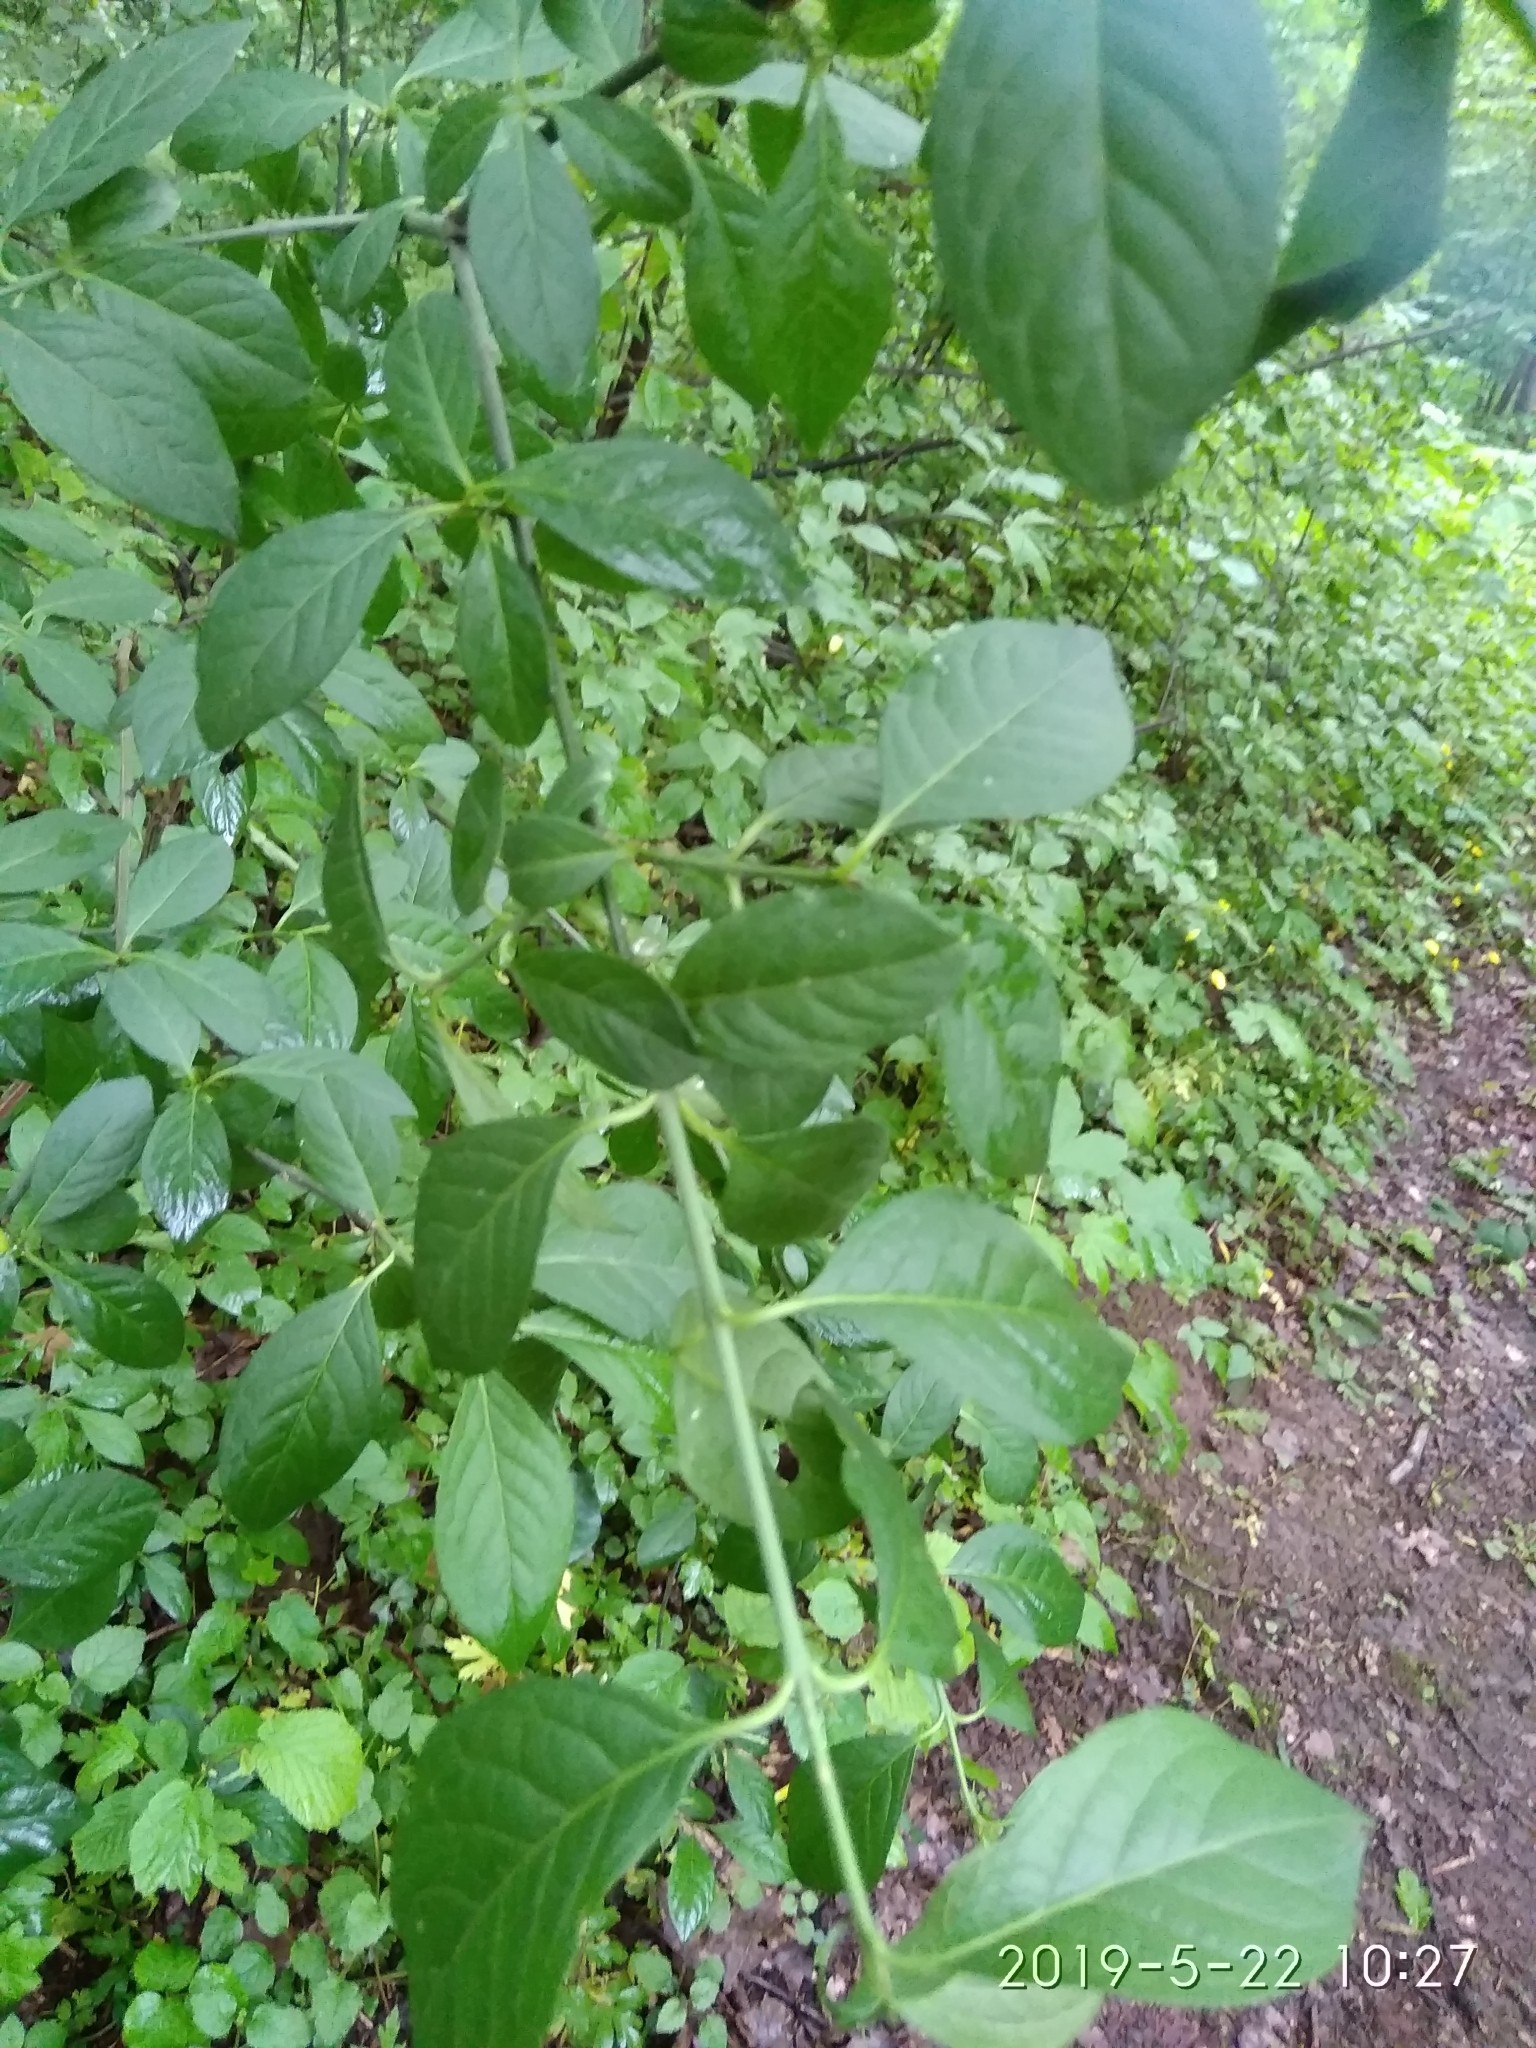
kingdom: Plantae
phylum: Tracheophyta
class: Magnoliopsida
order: Celastrales
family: Celastraceae
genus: Euonymus
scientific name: Euonymus europaeus
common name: Spindle
